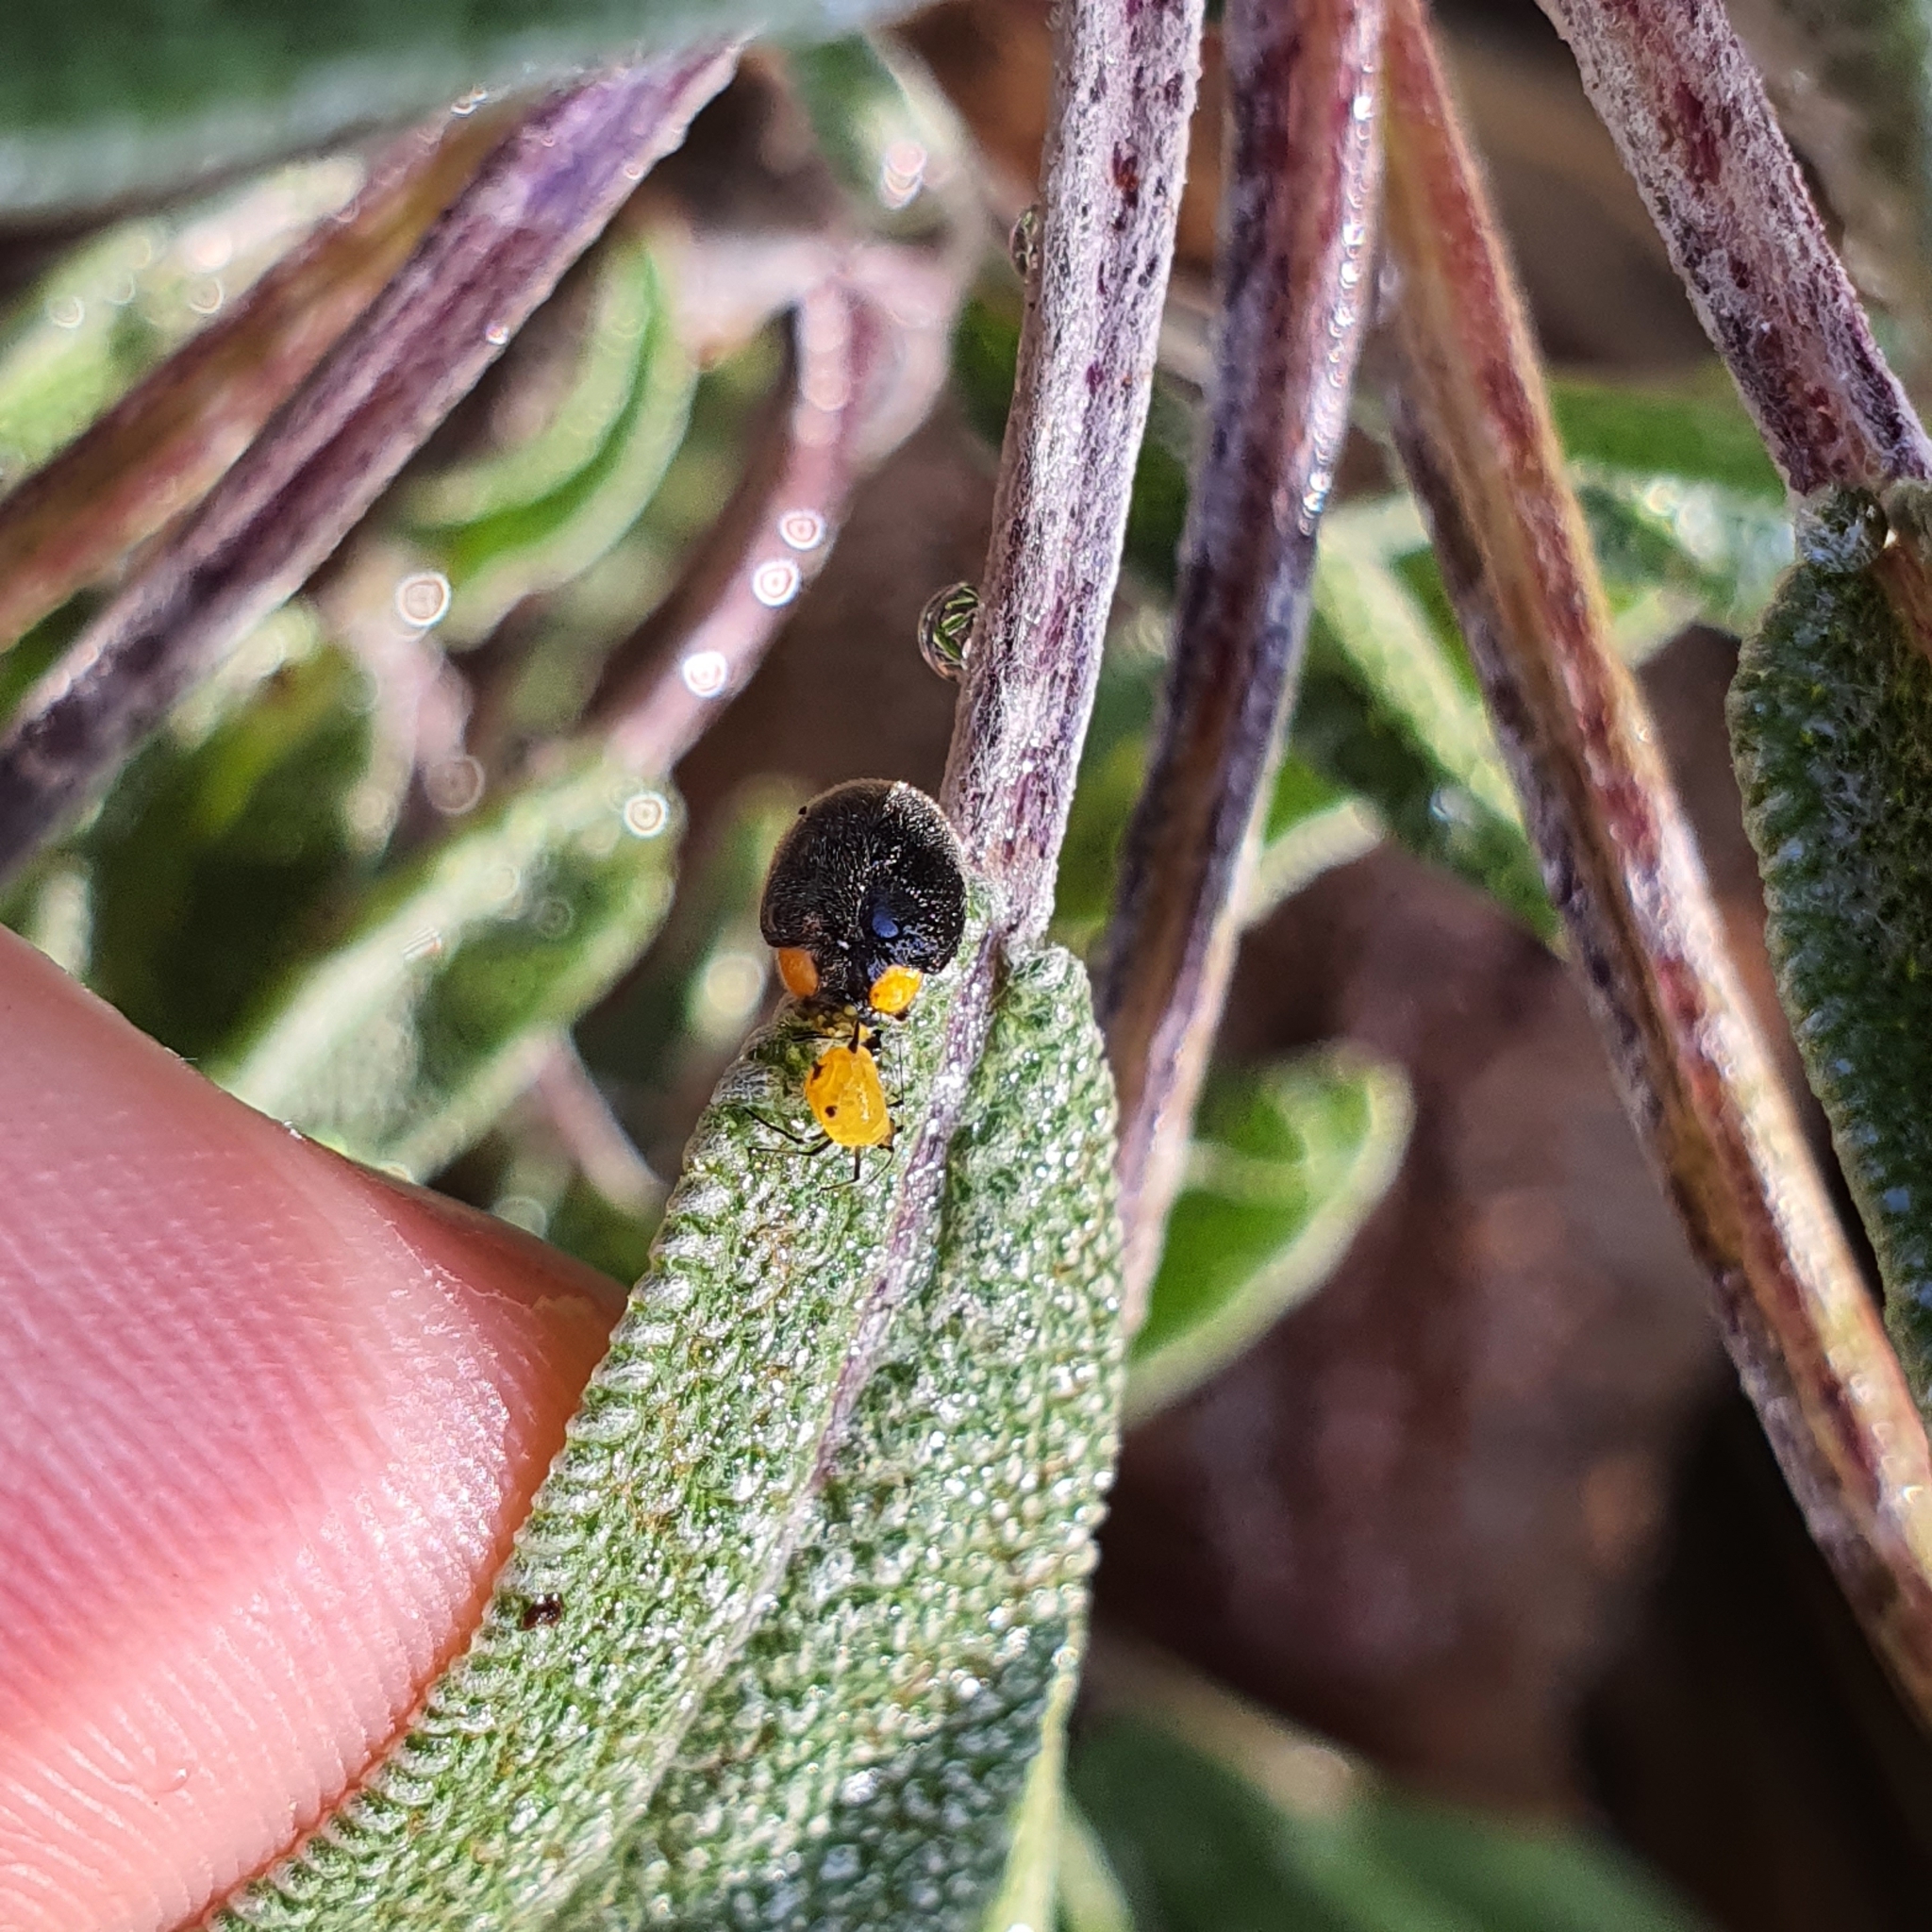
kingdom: Animalia
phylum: Arthropoda
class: Insecta
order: Coleoptera
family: Coccinellidae
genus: Scymnodes
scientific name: Scymnodes lividigaster
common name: Yellowshouldered lady beetle
